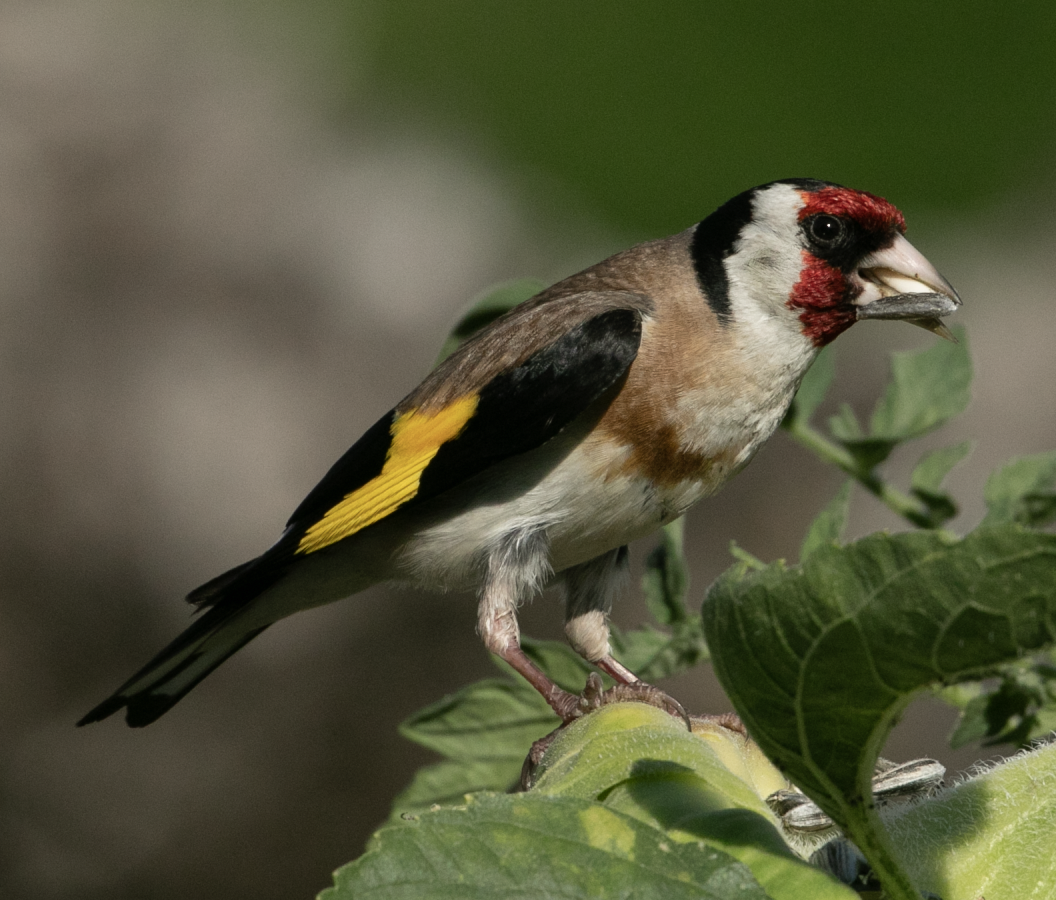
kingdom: Animalia
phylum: Chordata
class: Aves
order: Passeriformes
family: Fringillidae
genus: Carduelis
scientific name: Carduelis carduelis
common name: European goldfinch
